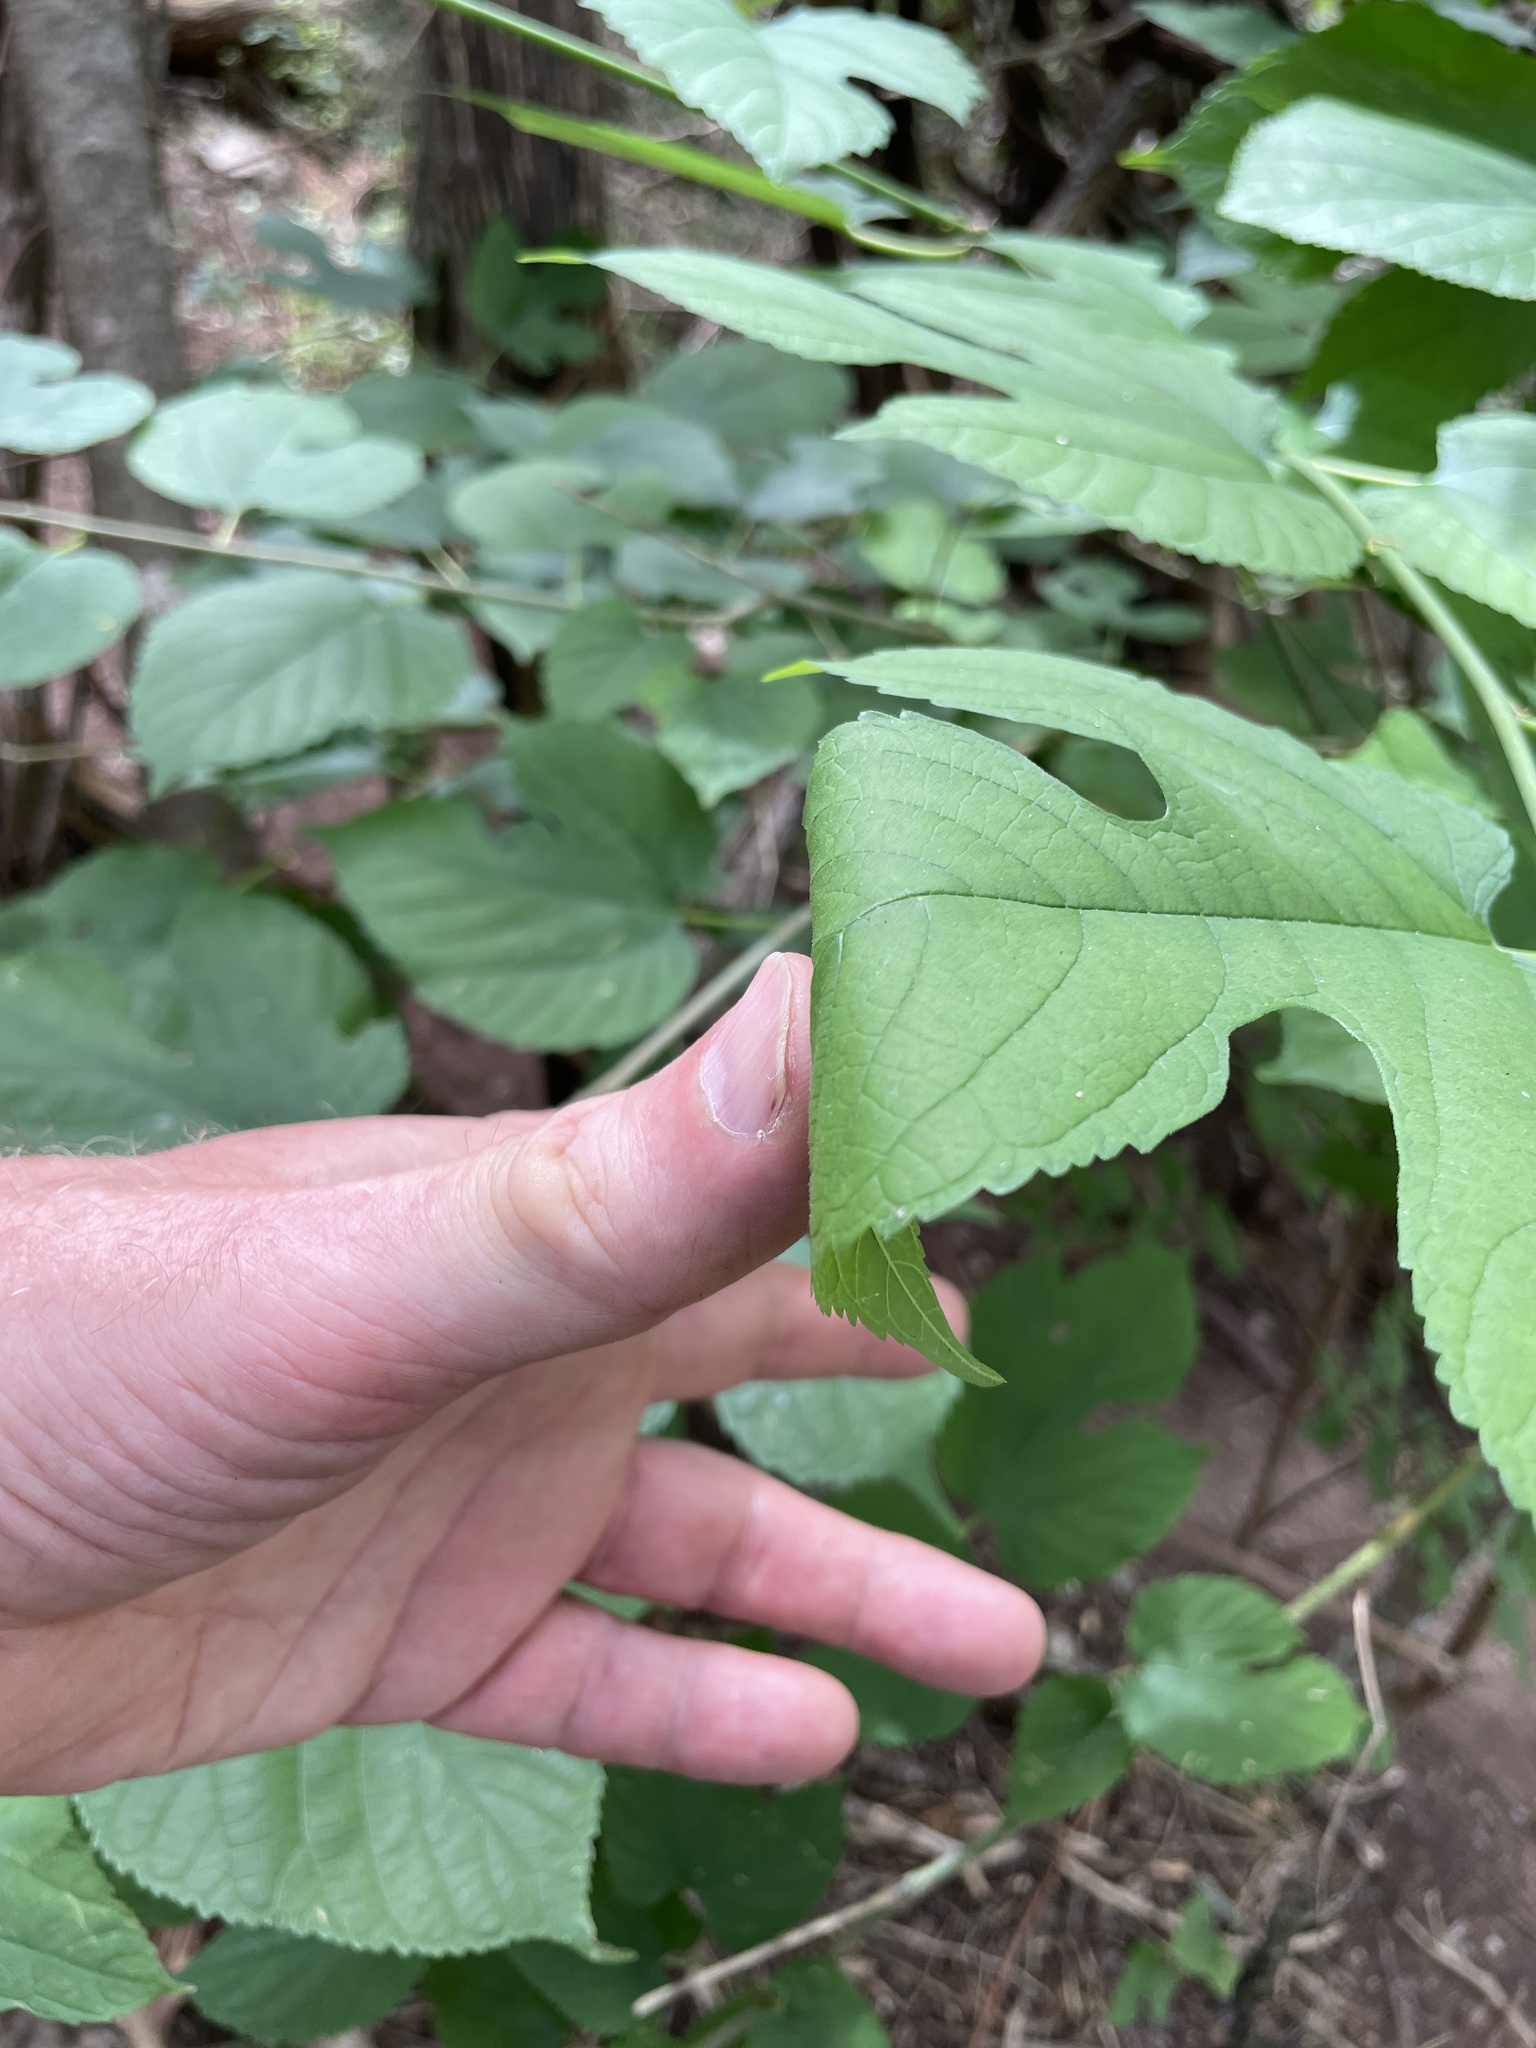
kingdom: Plantae
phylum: Tracheophyta
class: Magnoliopsida
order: Rosales
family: Moraceae
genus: Morus
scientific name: Morus rubra
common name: Red mulberry
